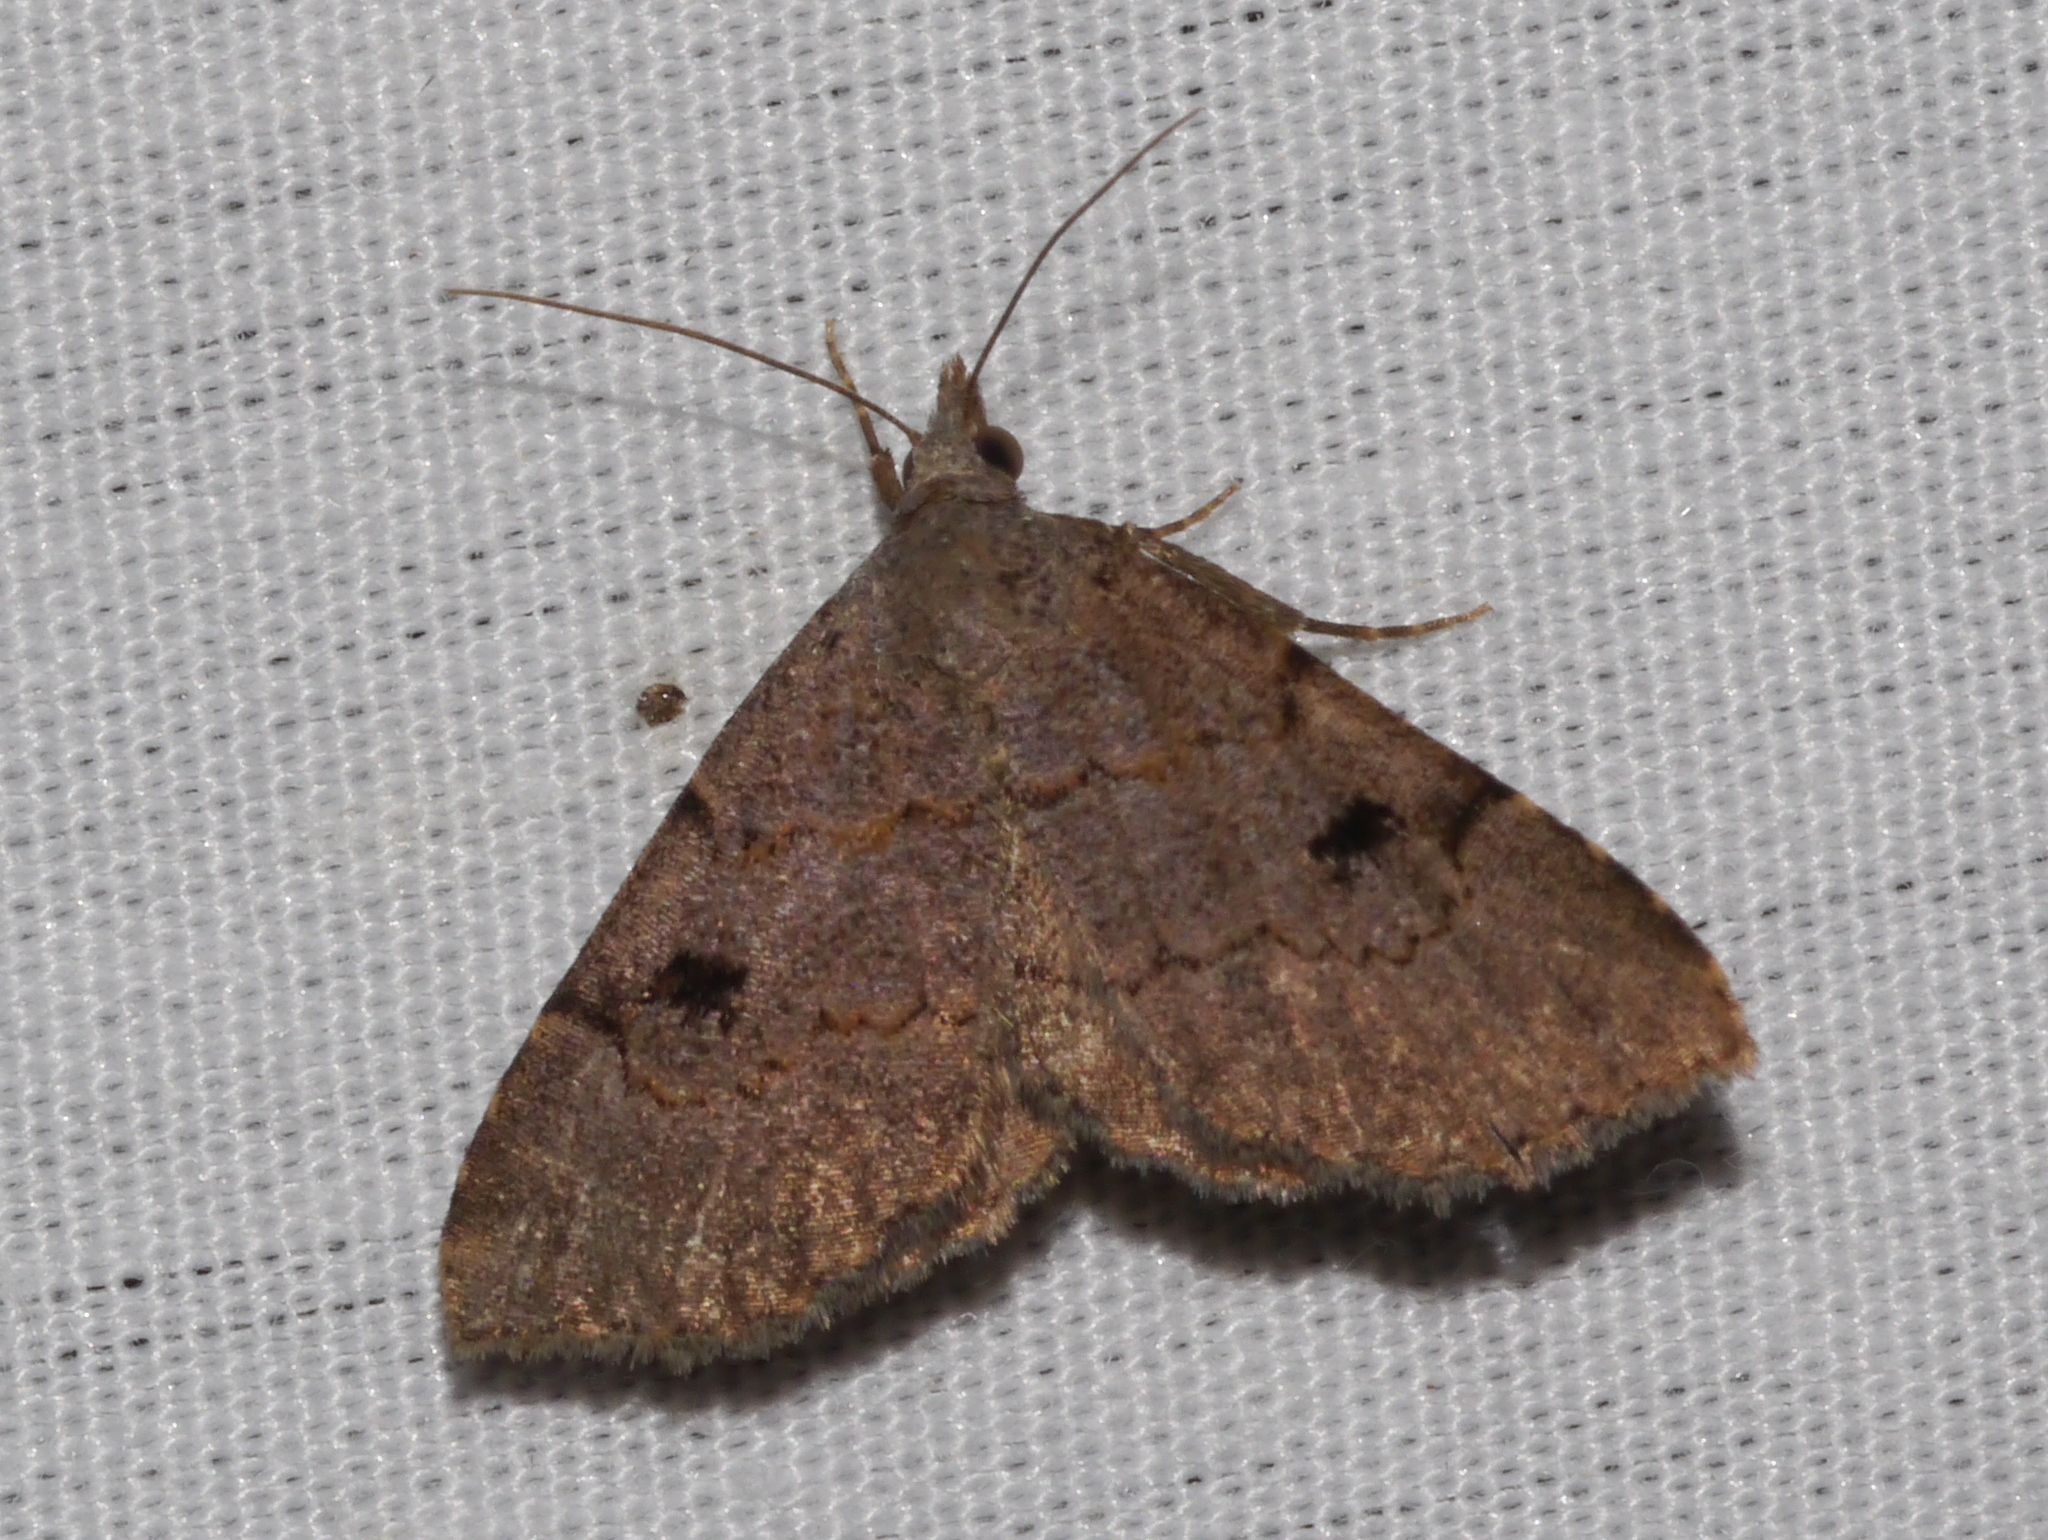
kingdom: Animalia
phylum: Arthropoda
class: Insecta
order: Lepidoptera
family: Erebidae
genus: Nychioptera
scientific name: Nychioptera noctuidalis
